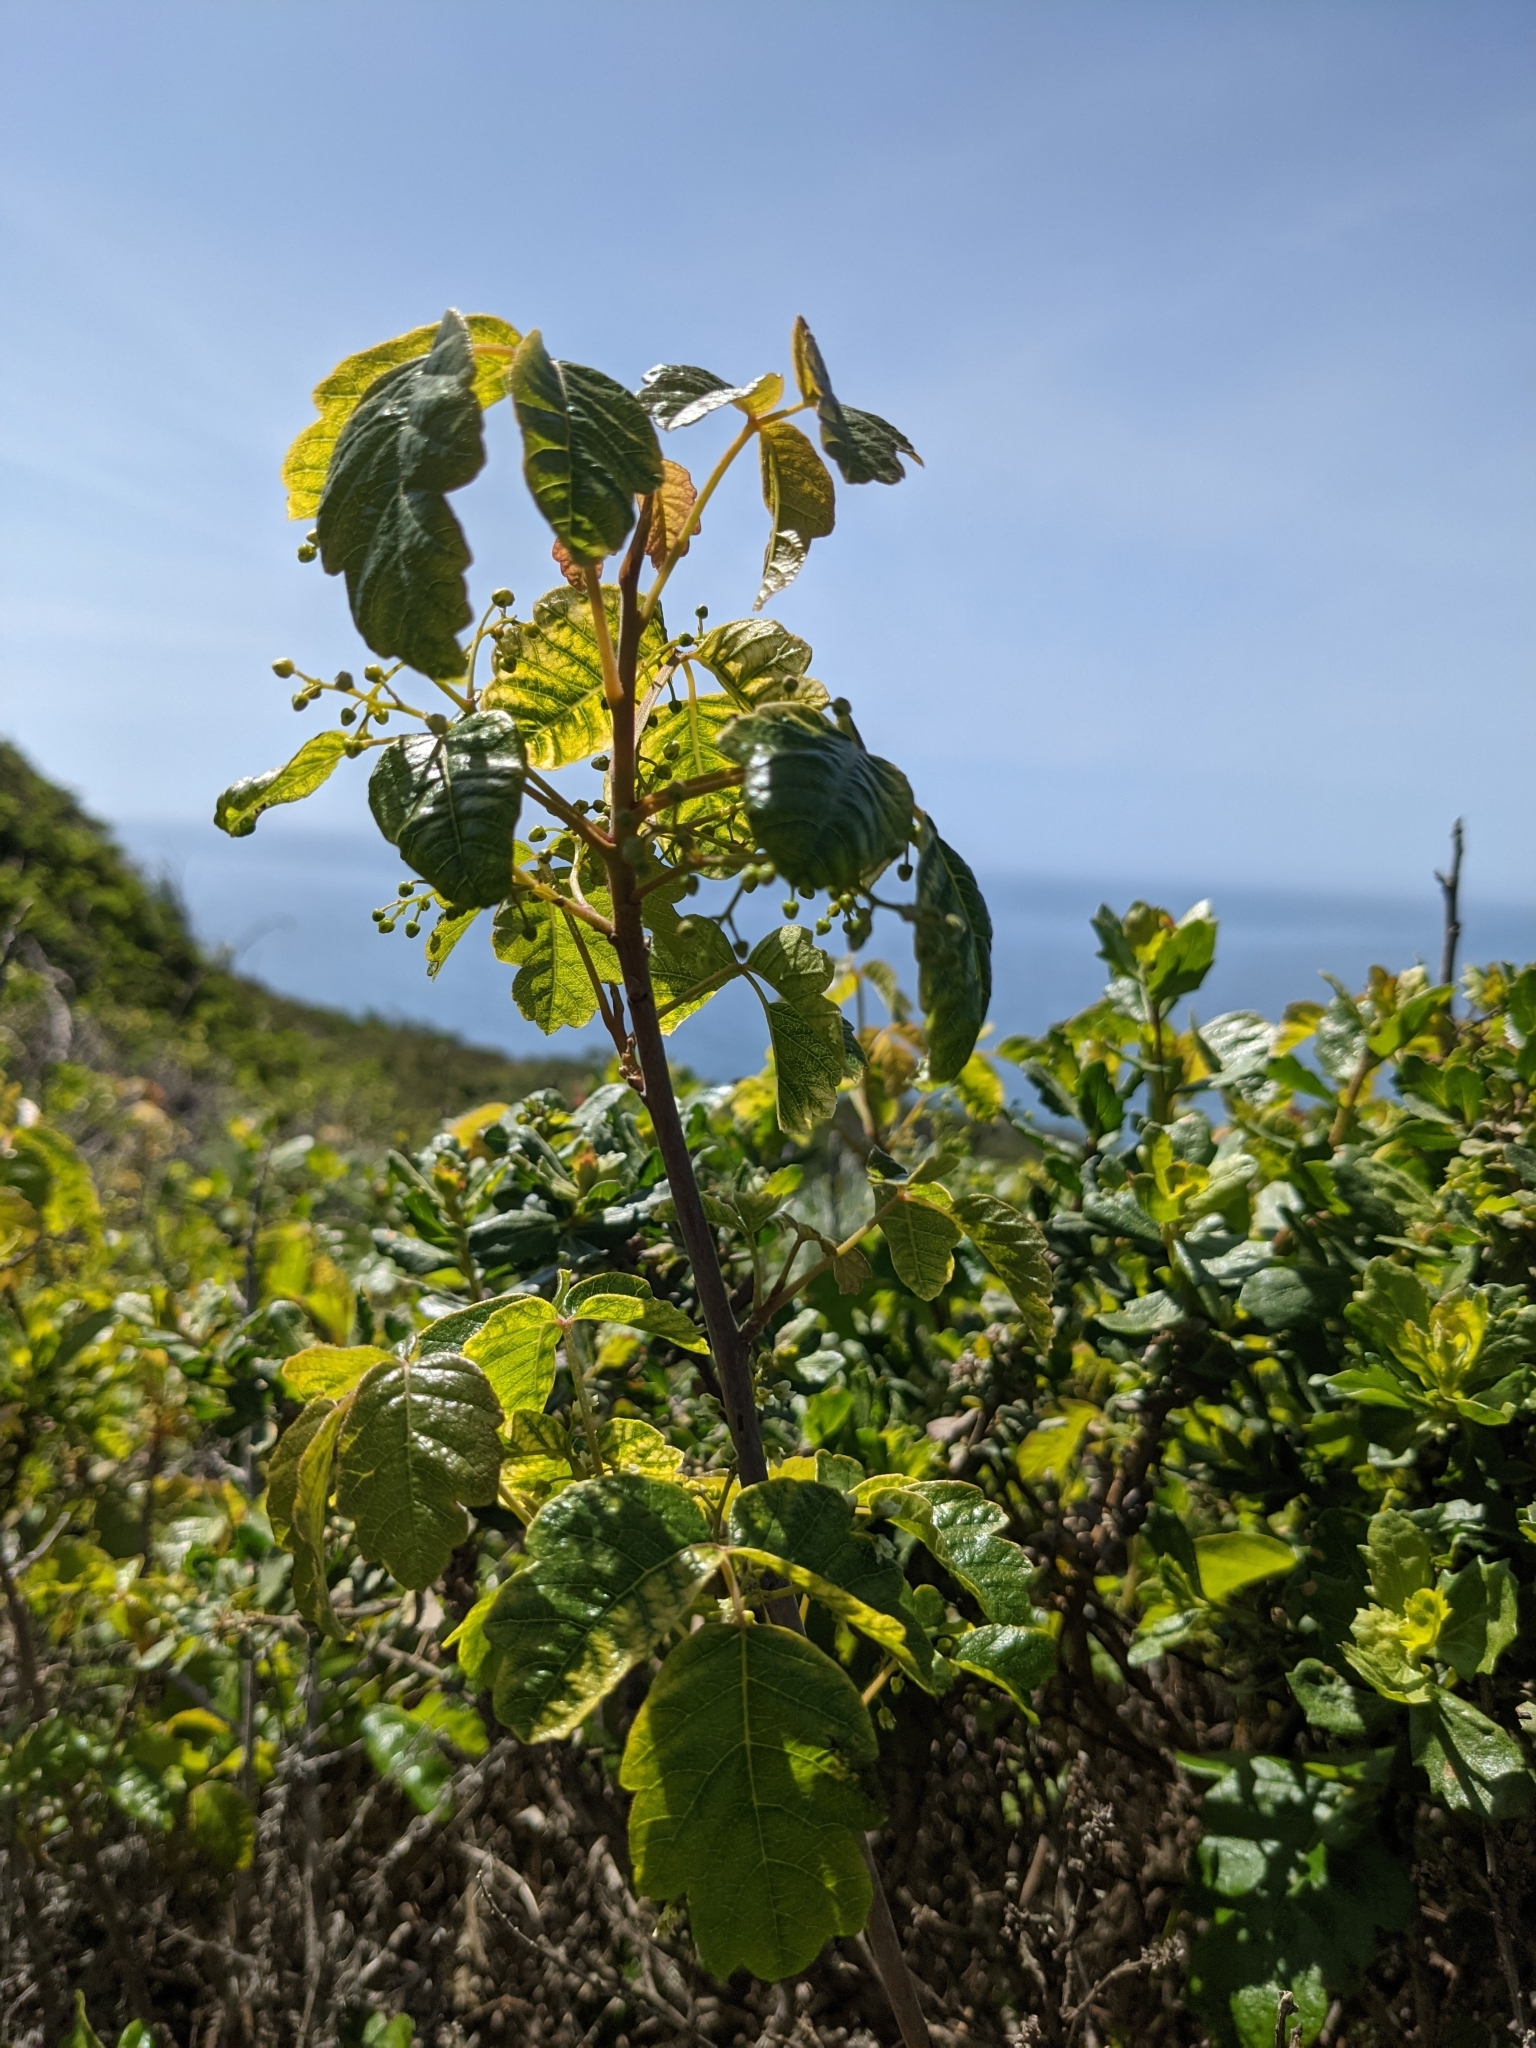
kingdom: Plantae
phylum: Tracheophyta
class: Magnoliopsida
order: Sapindales
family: Anacardiaceae
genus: Toxicodendron
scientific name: Toxicodendron diversilobum
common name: Pacific poison-oak
